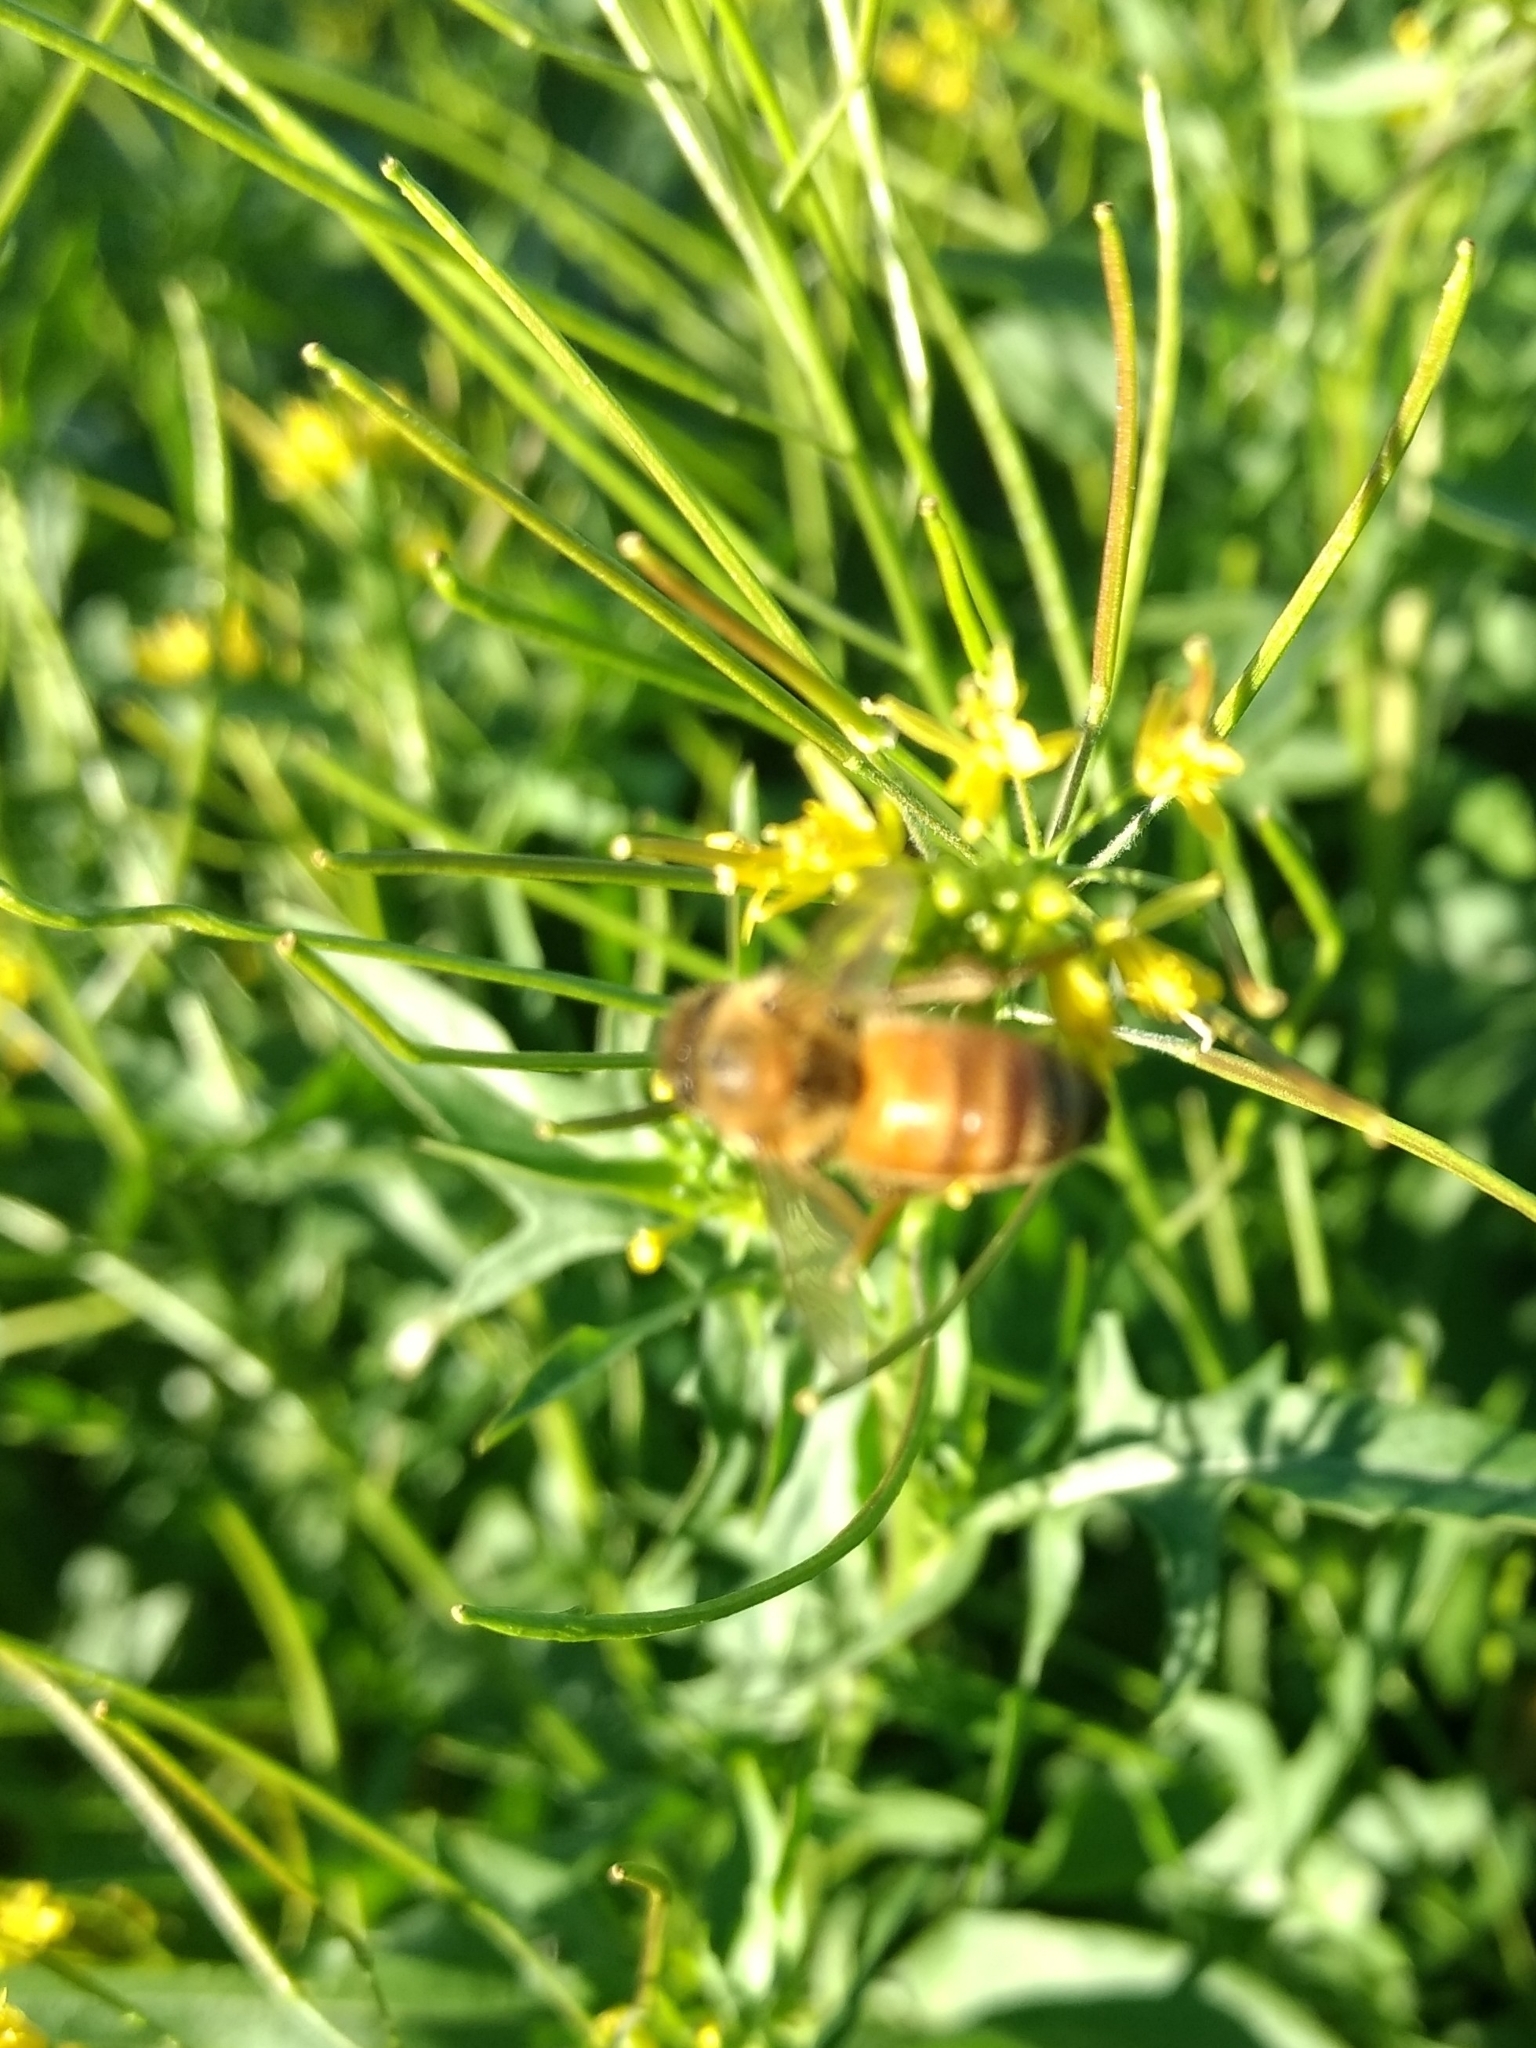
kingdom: Animalia
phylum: Arthropoda
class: Insecta
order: Hymenoptera
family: Apidae
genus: Apis
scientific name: Apis mellifera
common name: Honey bee
